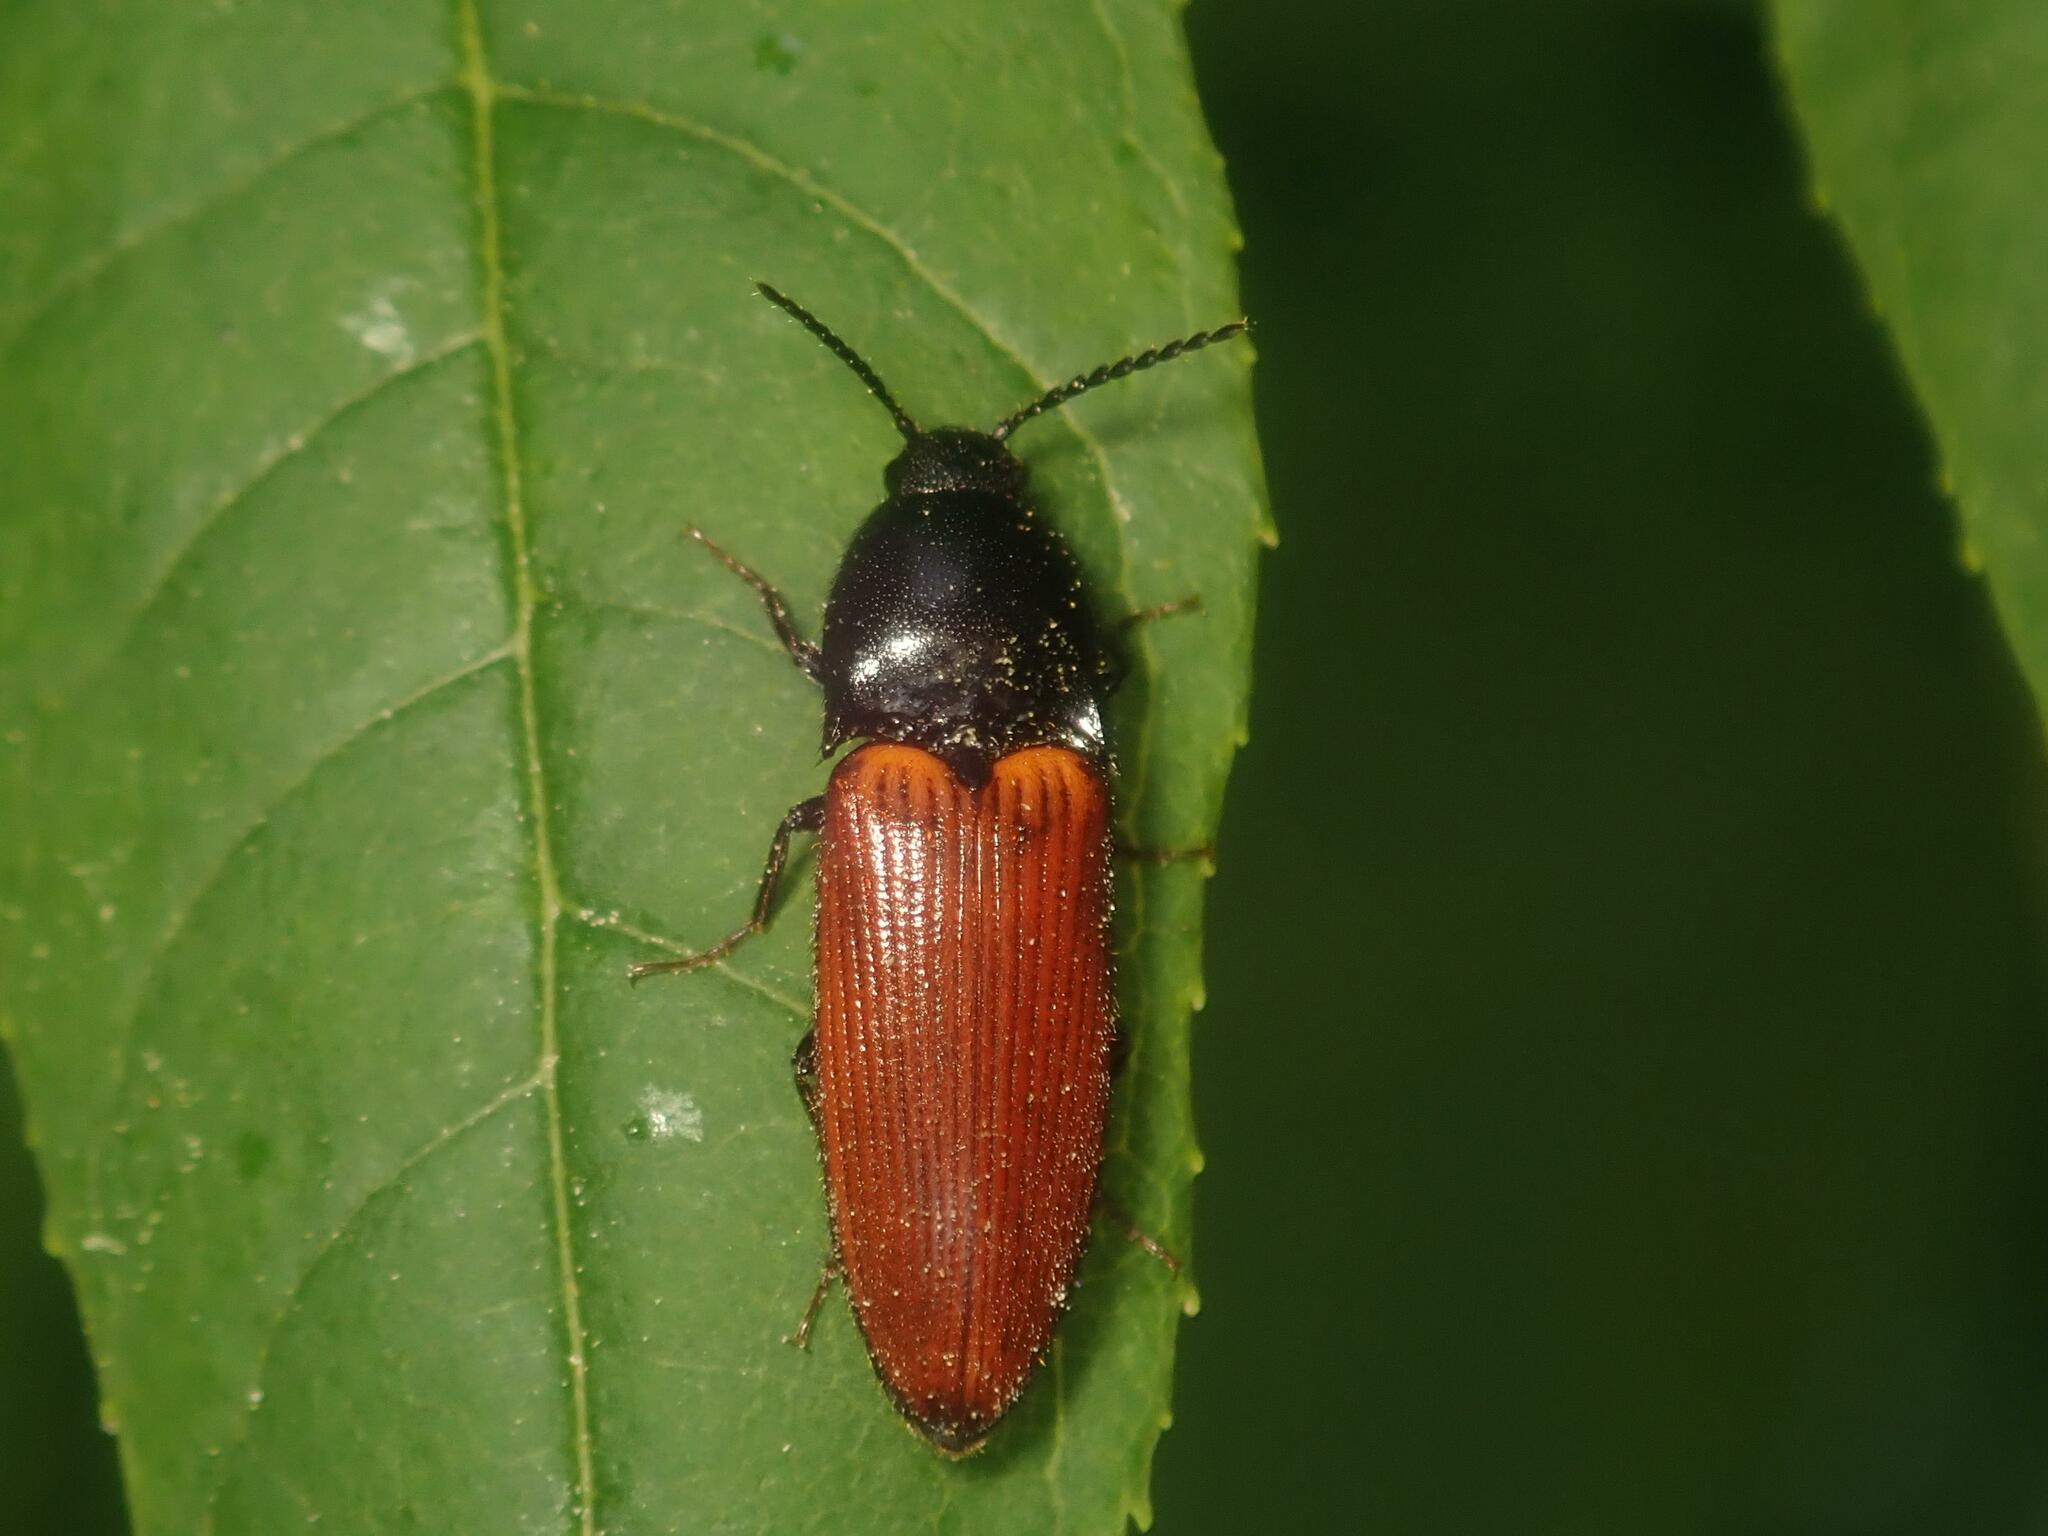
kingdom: Animalia
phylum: Arthropoda
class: Insecta
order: Coleoptera
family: Elateridae
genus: Ampedus
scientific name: Ampedus sanguineus
